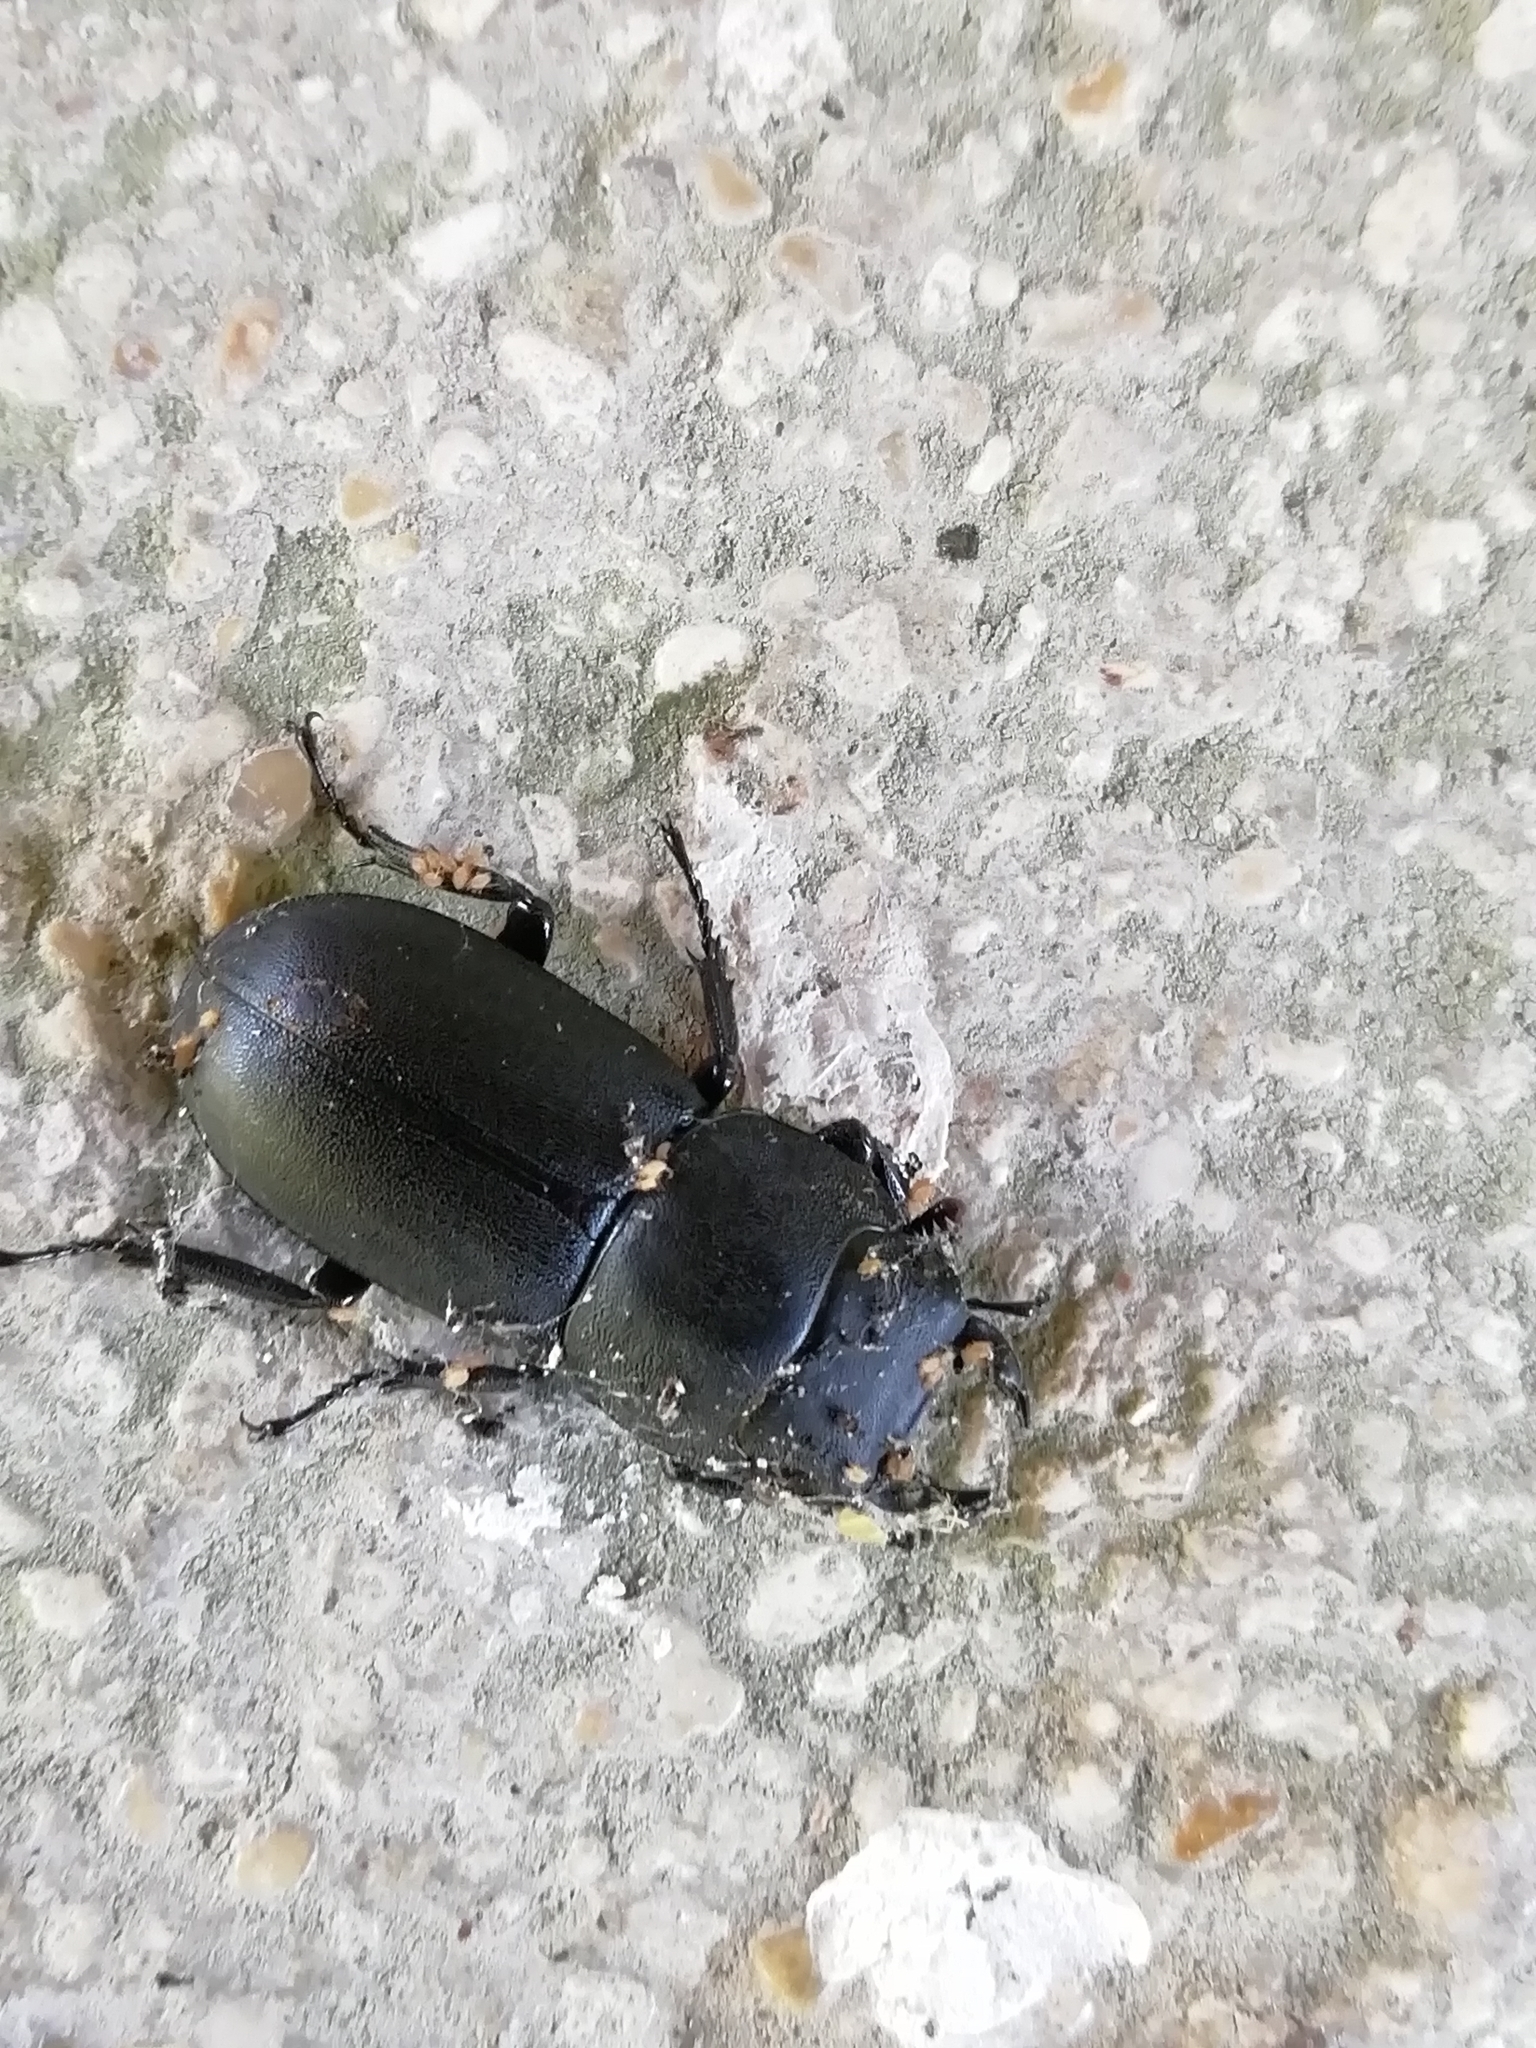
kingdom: Animalia
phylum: Arthropoda
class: Insecta
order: Coleoptera
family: Lucanidae
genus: Dorcus
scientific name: Dorcus parallelipipedus
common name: Lesser stag beetle
